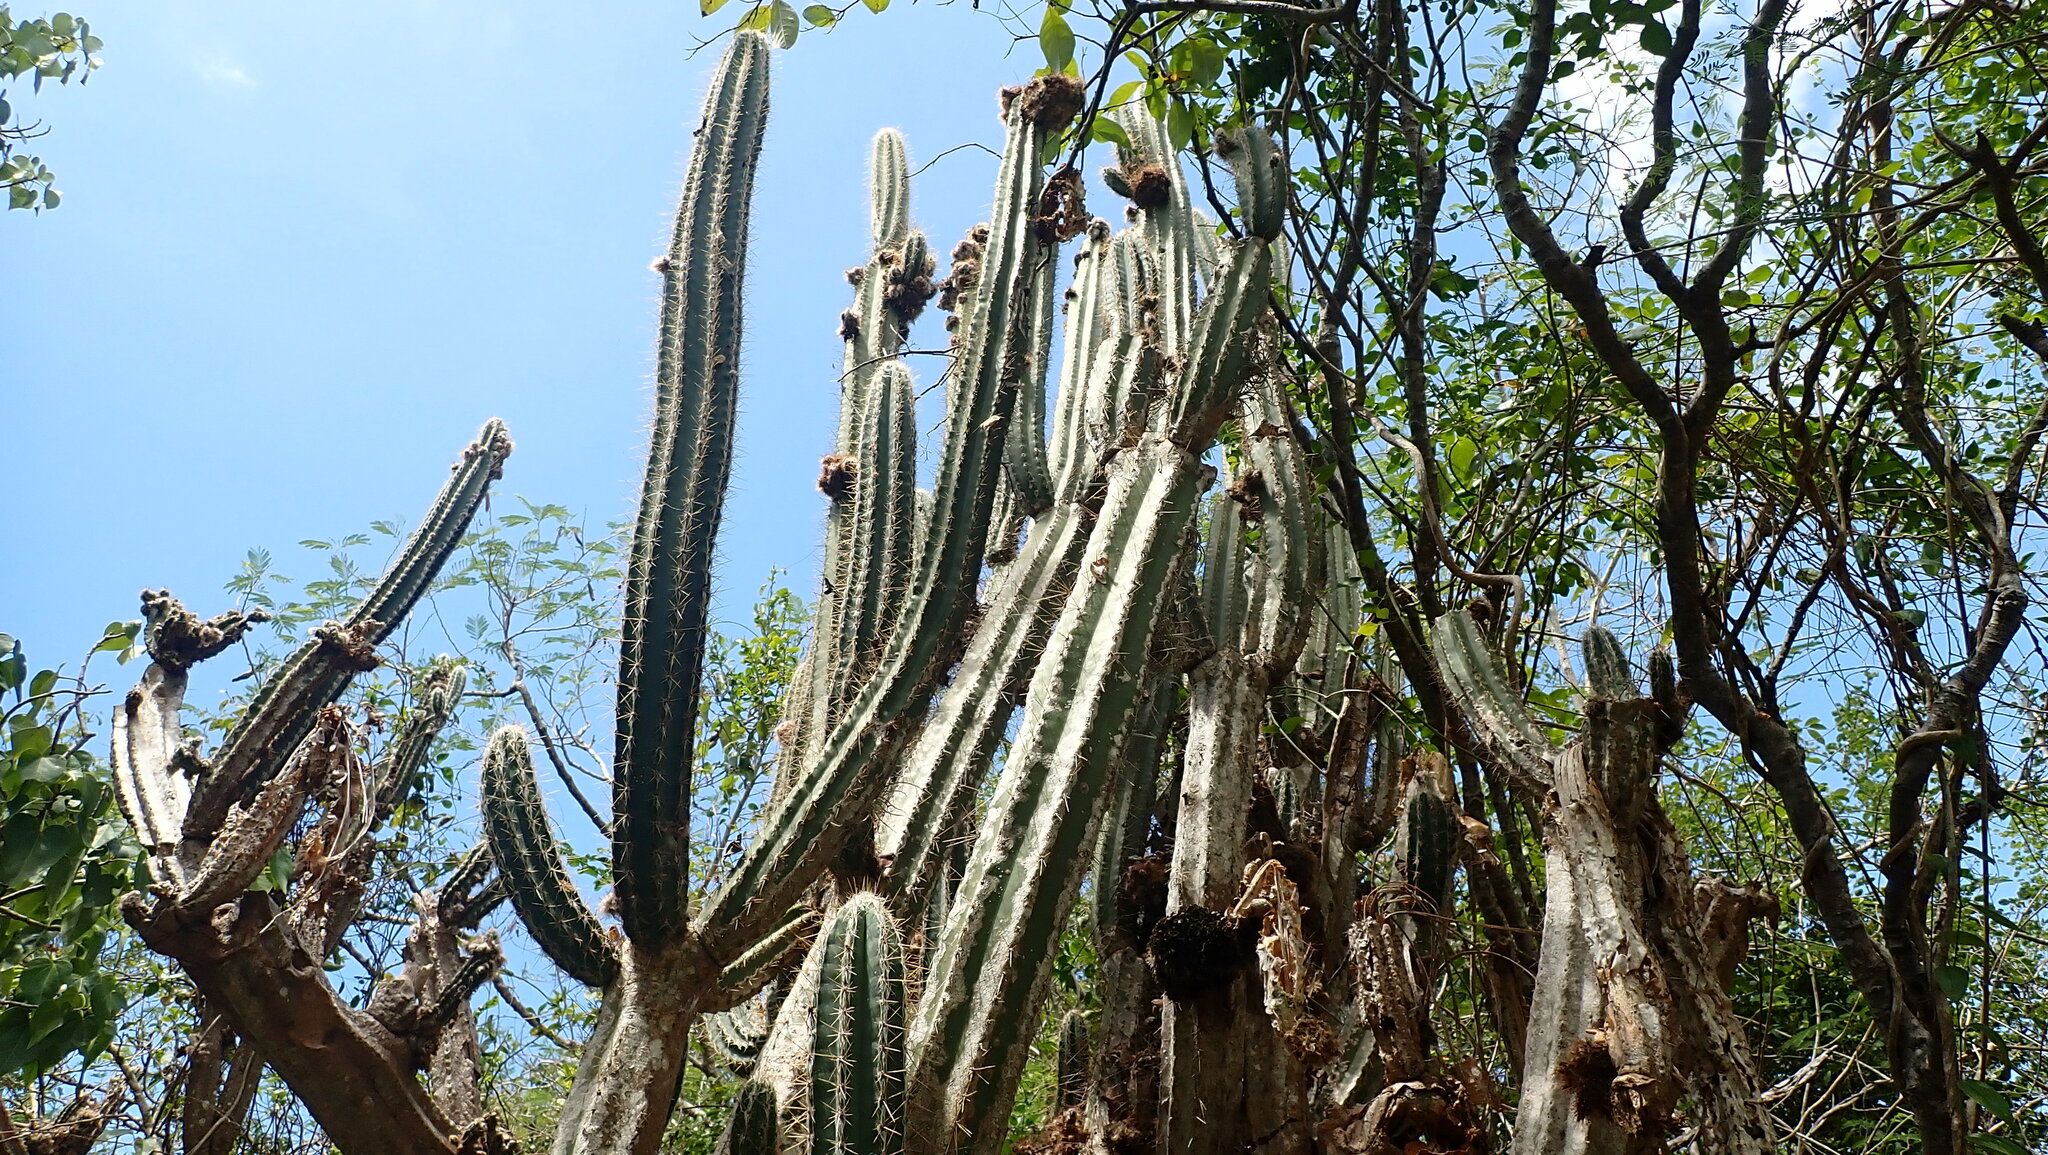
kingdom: Plantae
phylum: Tracheophyta
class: Magnoliopsida
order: Caryophyllales
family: Cactaceae
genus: Pilosocereus
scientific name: Pilosocereus armatus
